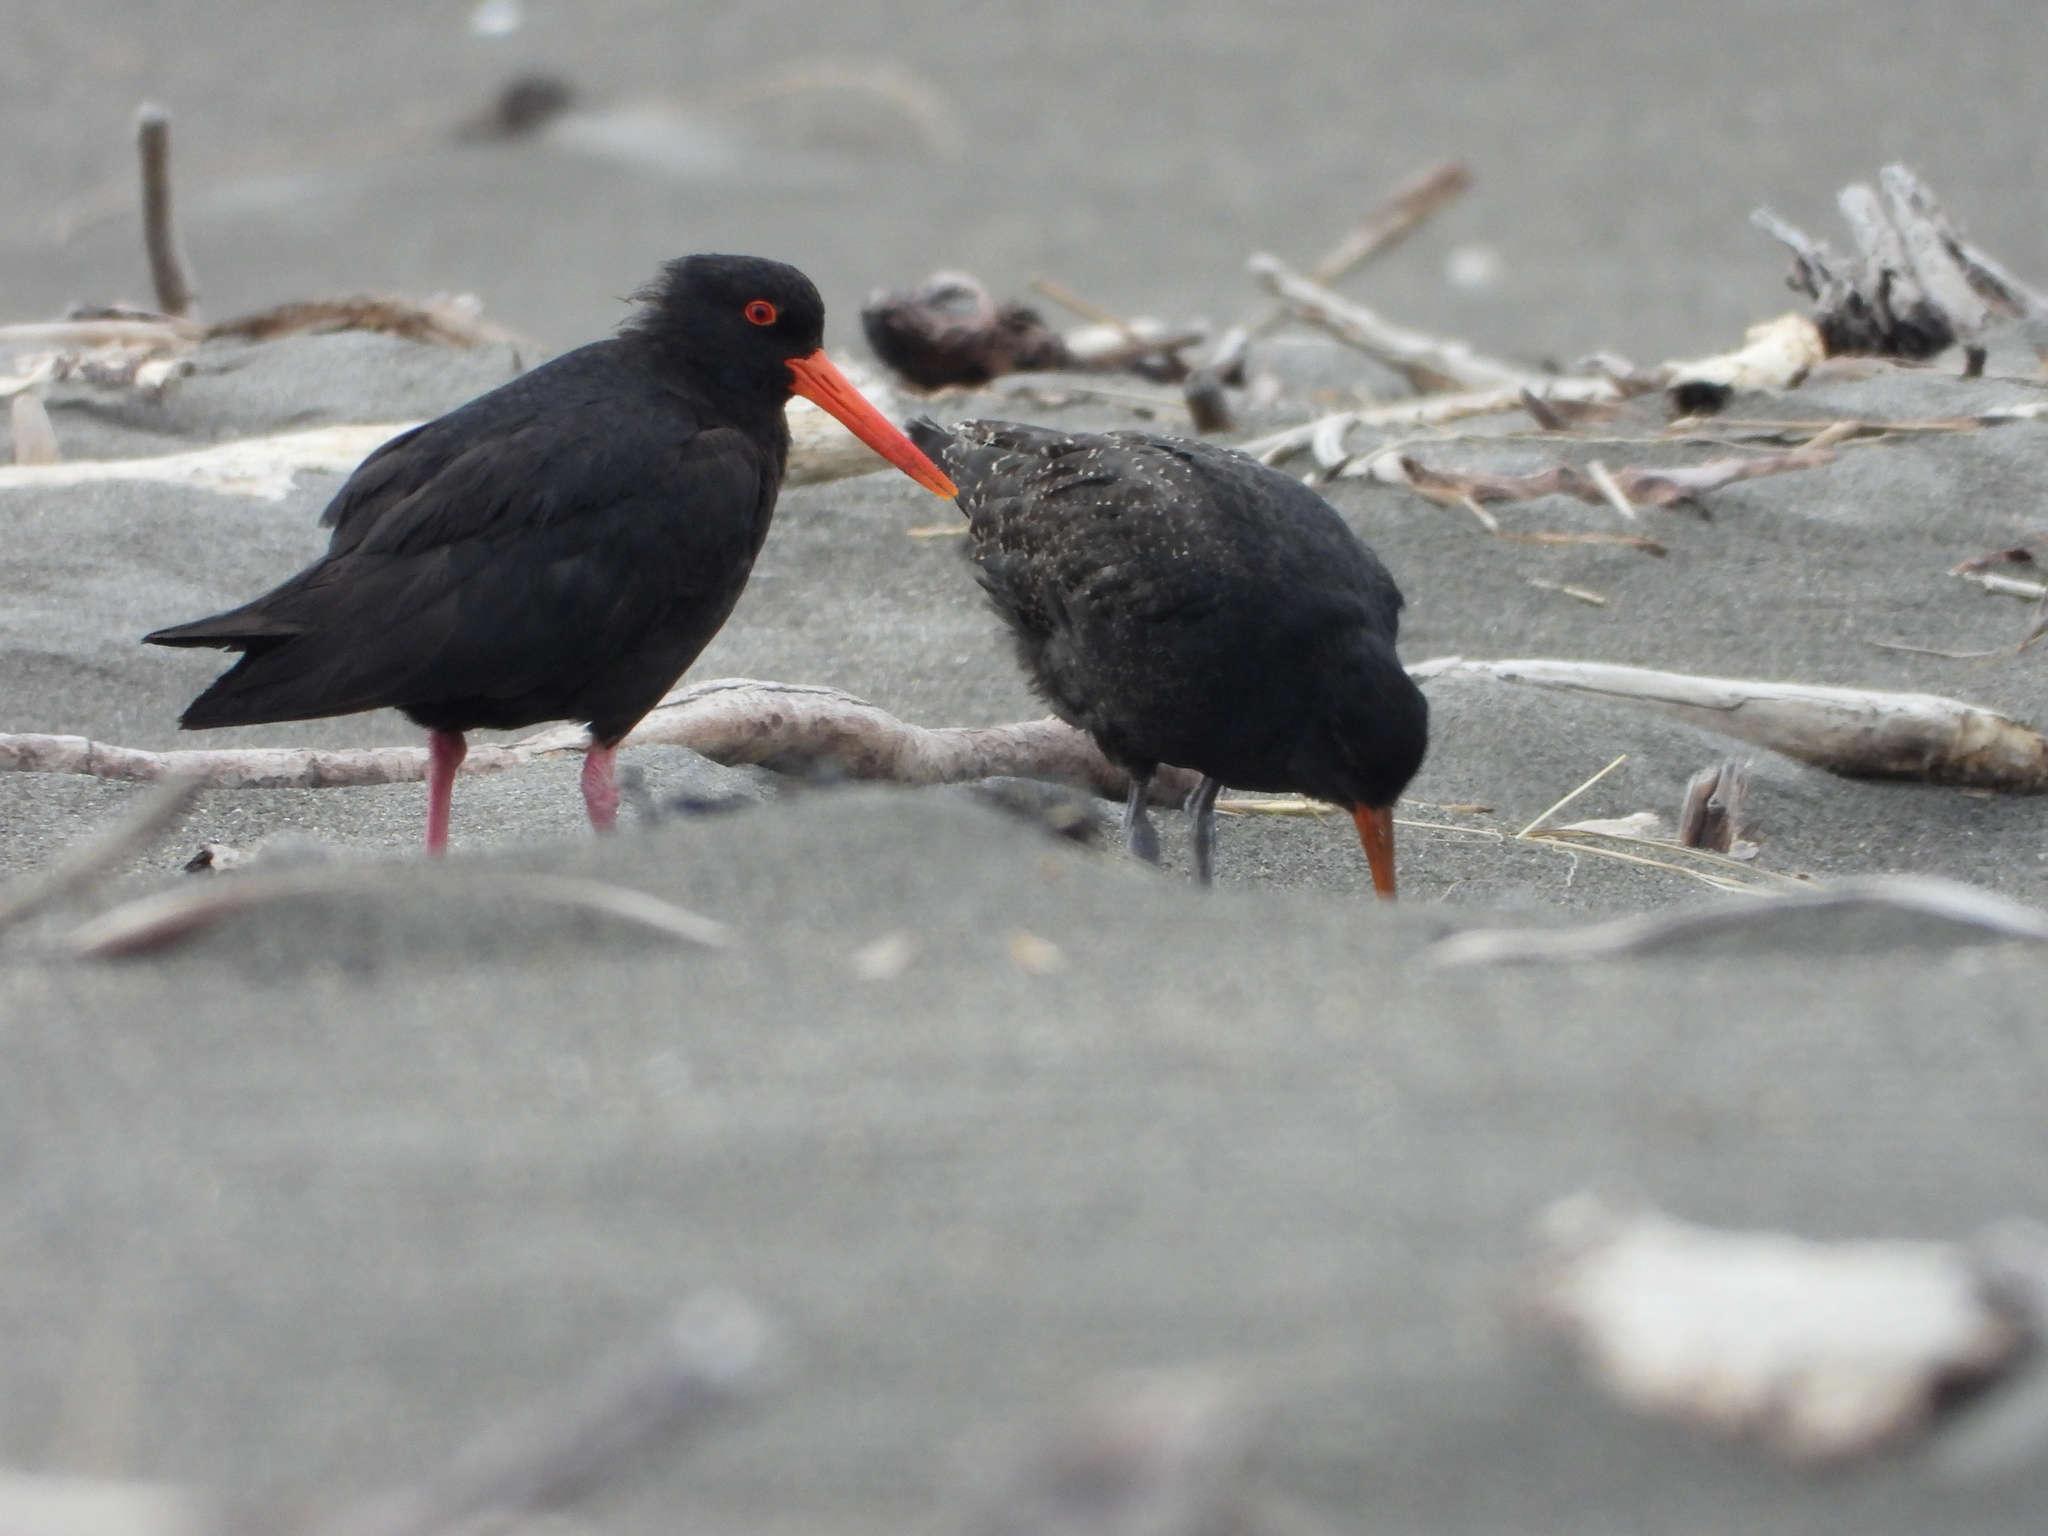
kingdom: Animalia
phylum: Chordata
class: Aves
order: Charadriiformes
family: Haematopodidae
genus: Haematopus
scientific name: Haematopus unicolor
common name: Variable oystercatcher
